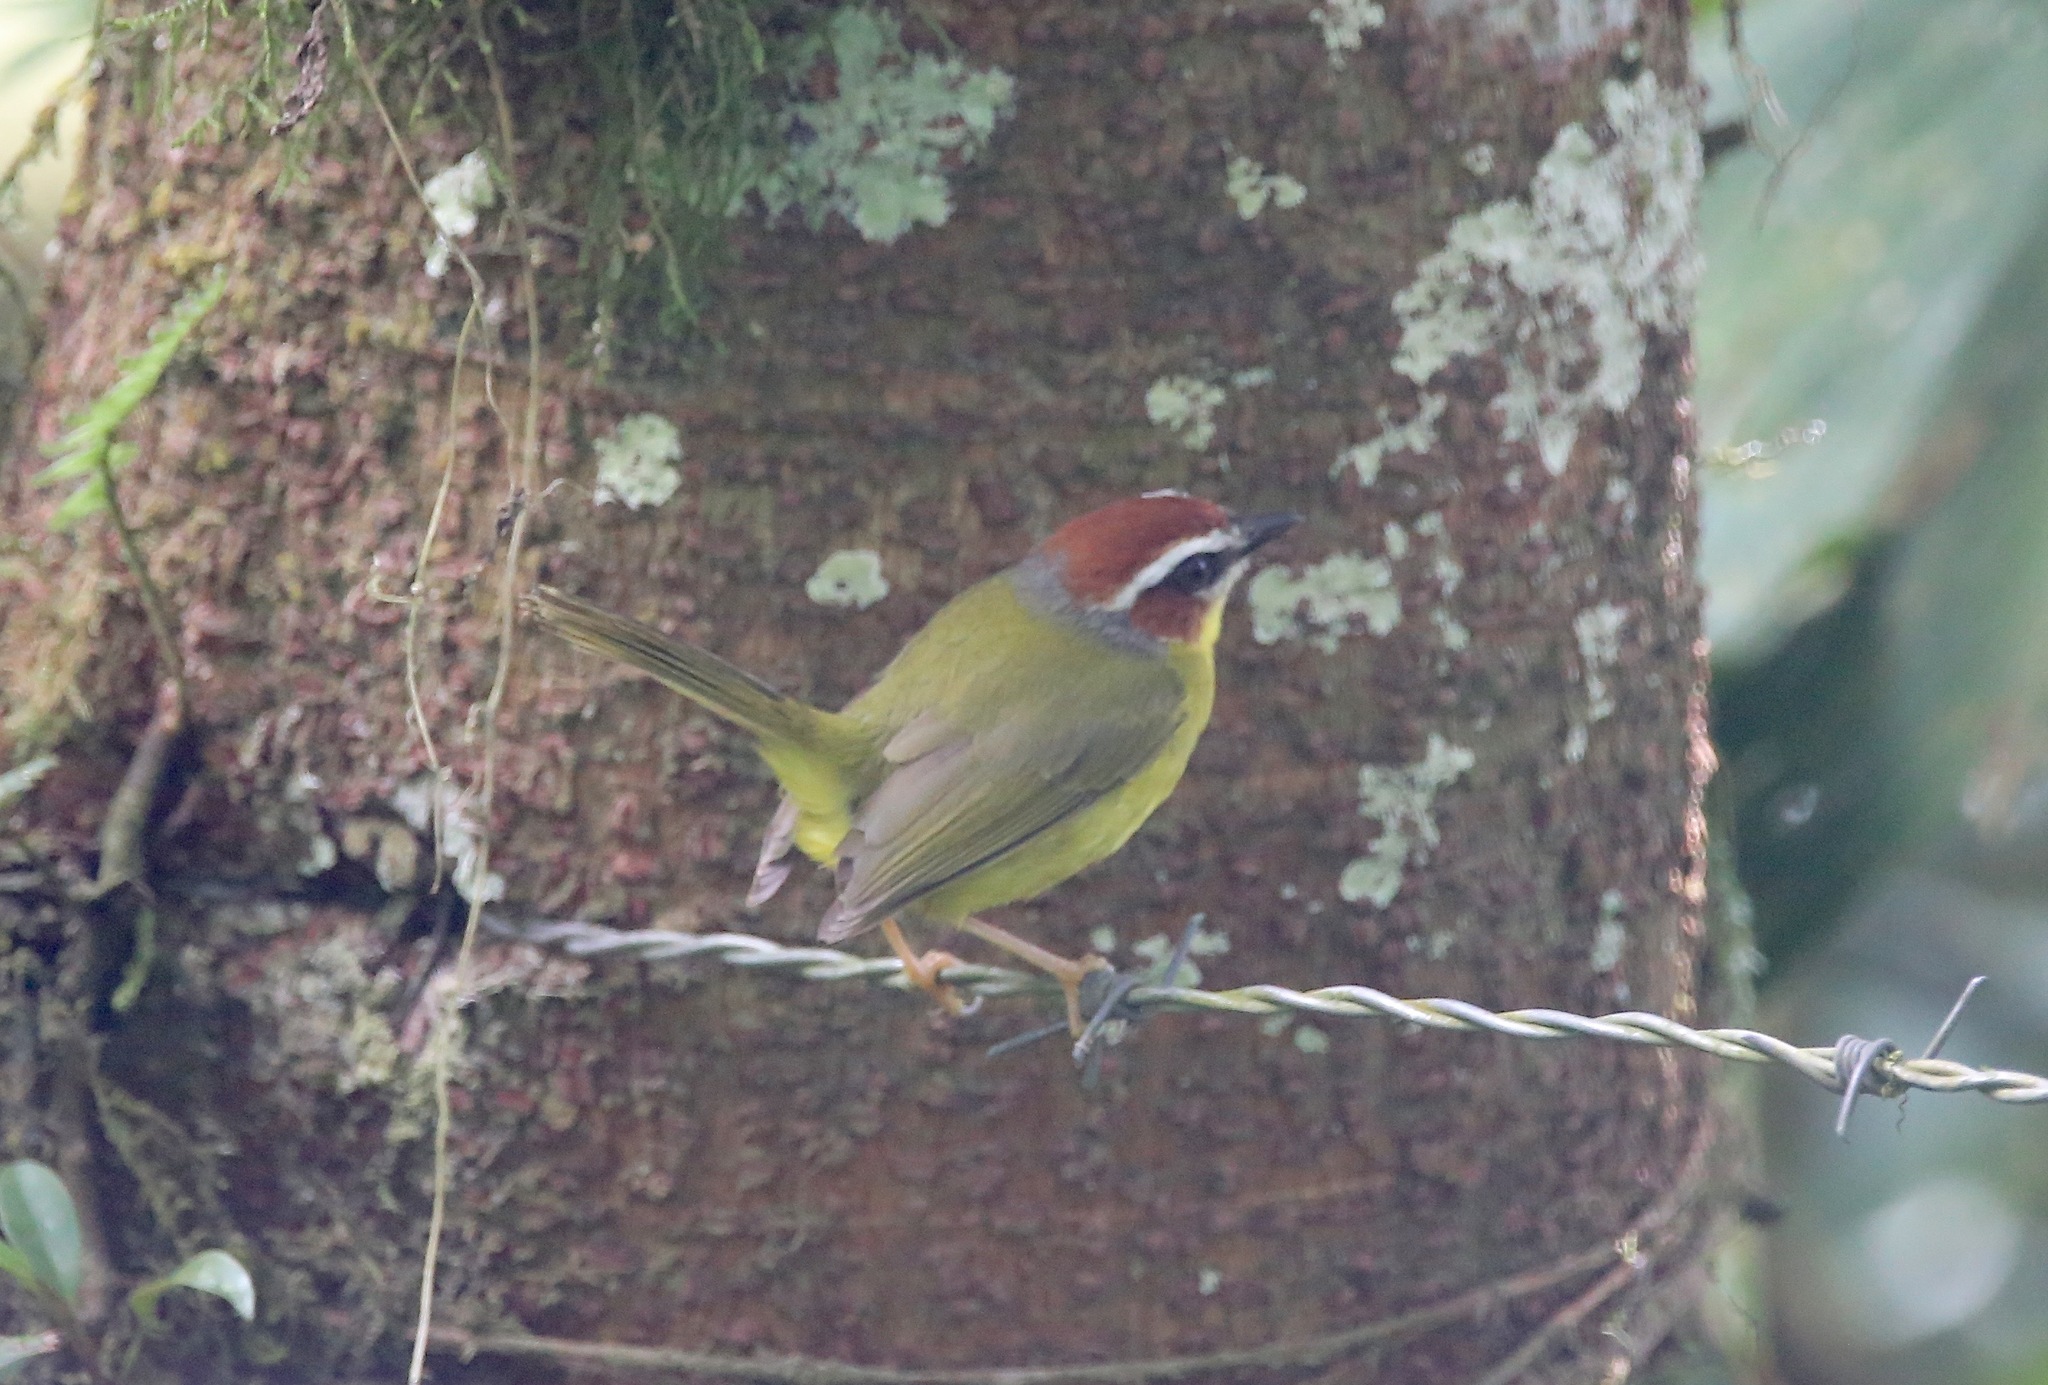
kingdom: Animalia
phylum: Chordata
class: Aves
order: Passeriformes
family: Parulidae
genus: Basileuterus
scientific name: Basileuterus rufifrons
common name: Rufous-capped warbler
